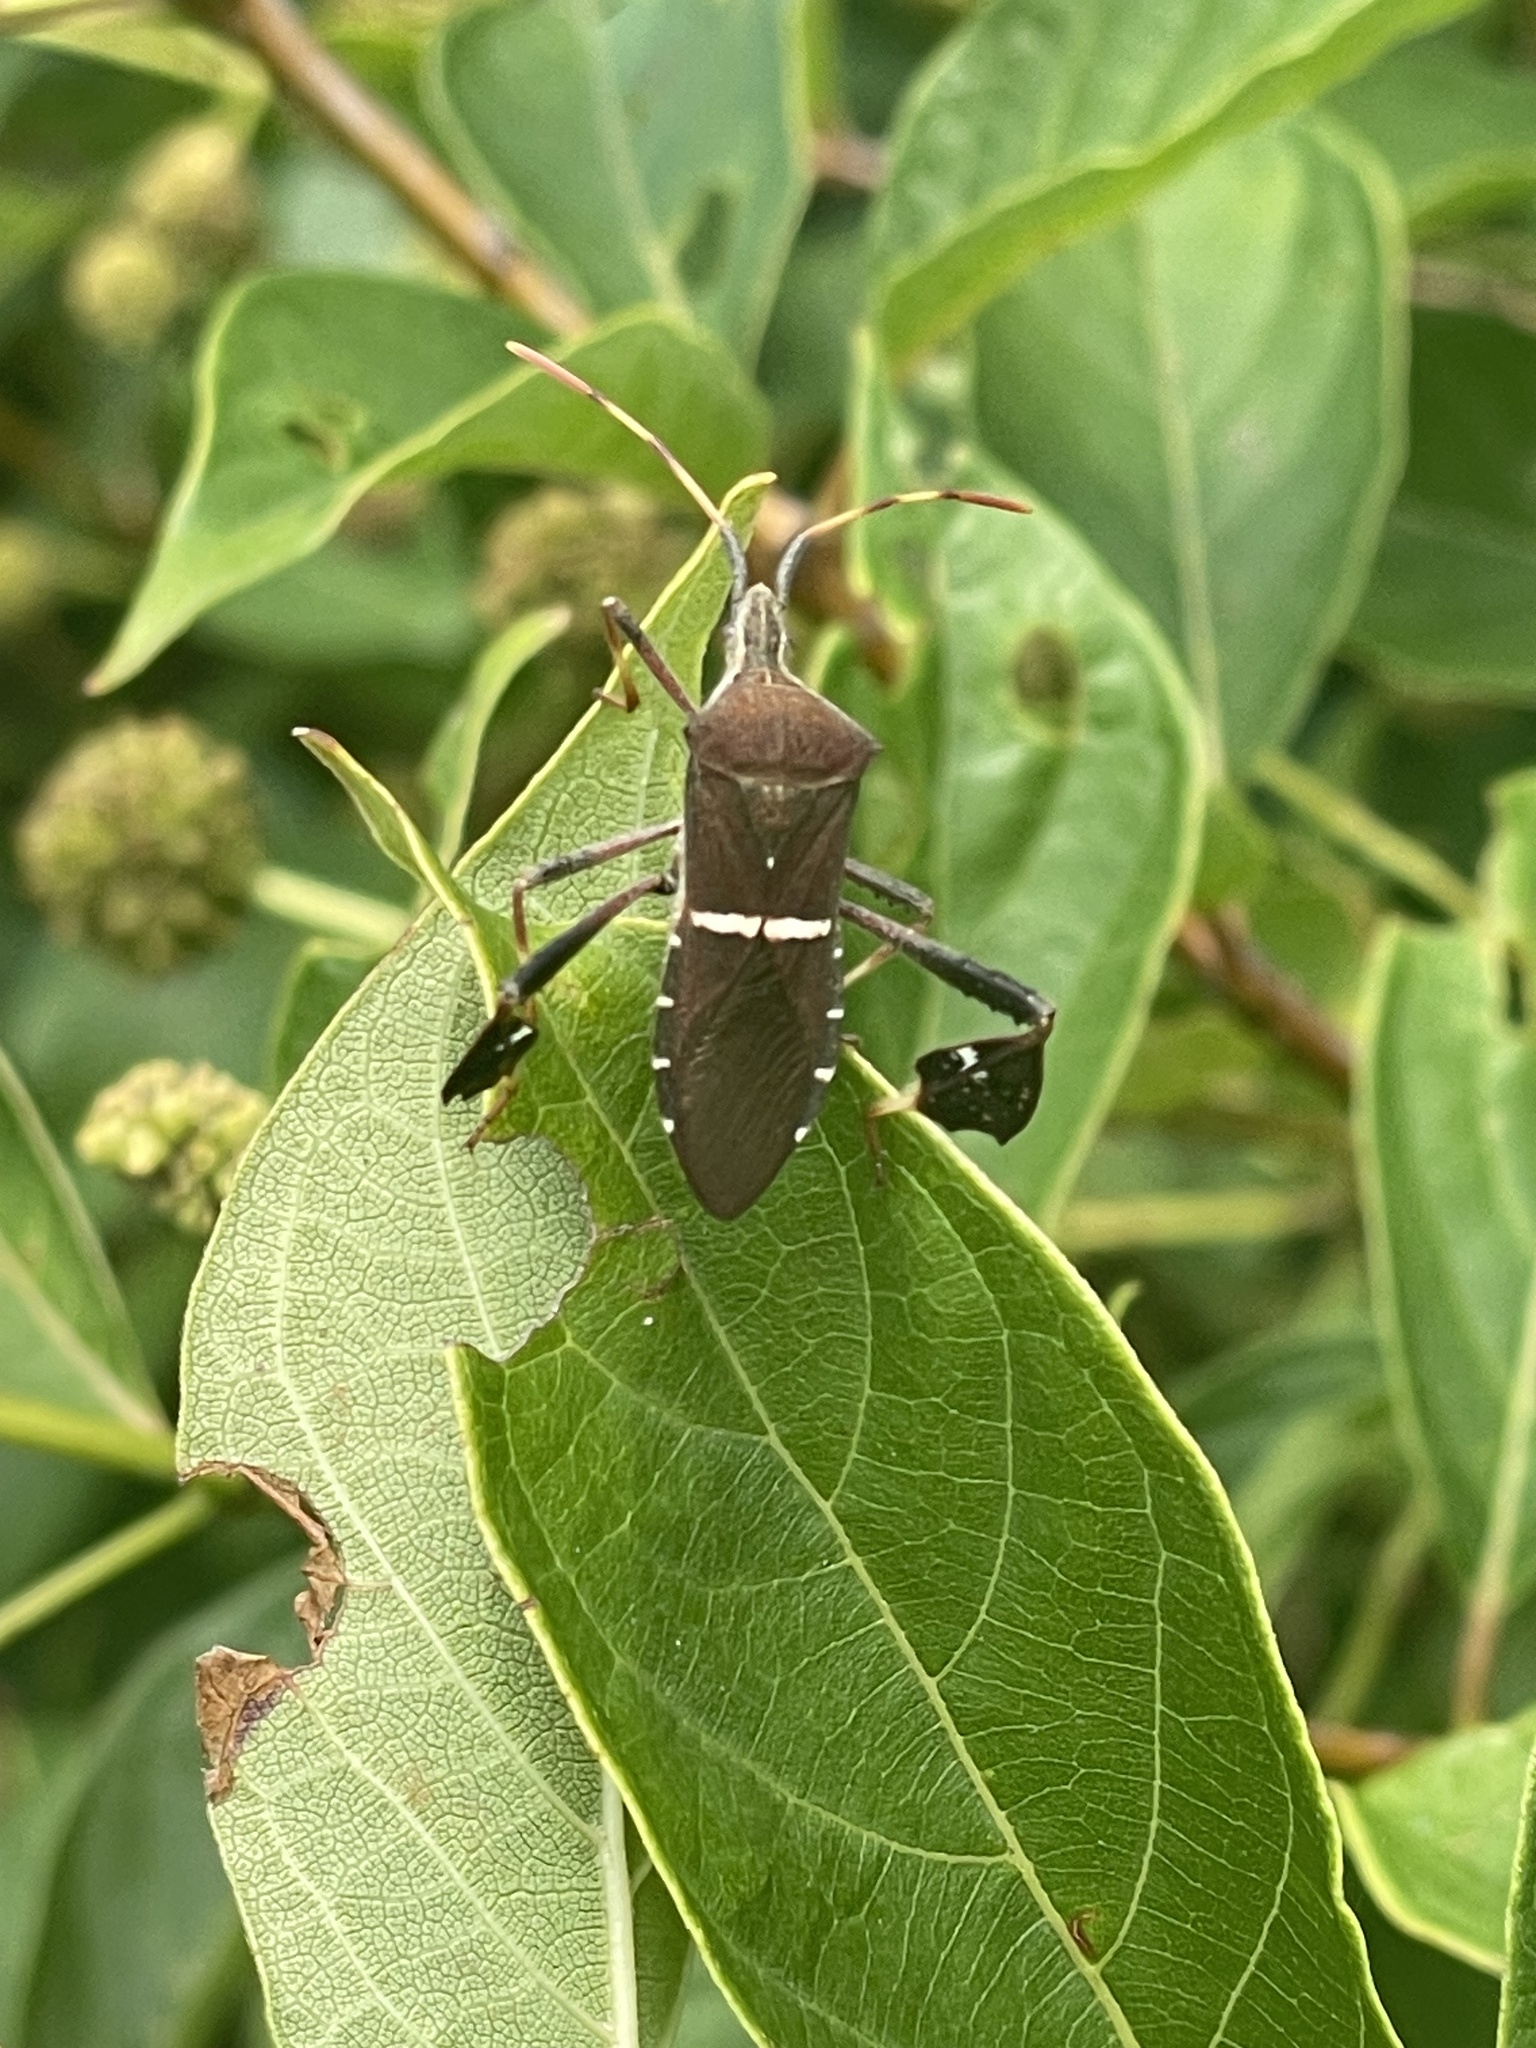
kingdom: Animalia
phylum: Arthropoda
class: Insecta
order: Hemiptera
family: Coreidae
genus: Leptoglossus
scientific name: Leptoglossus phyllopus
